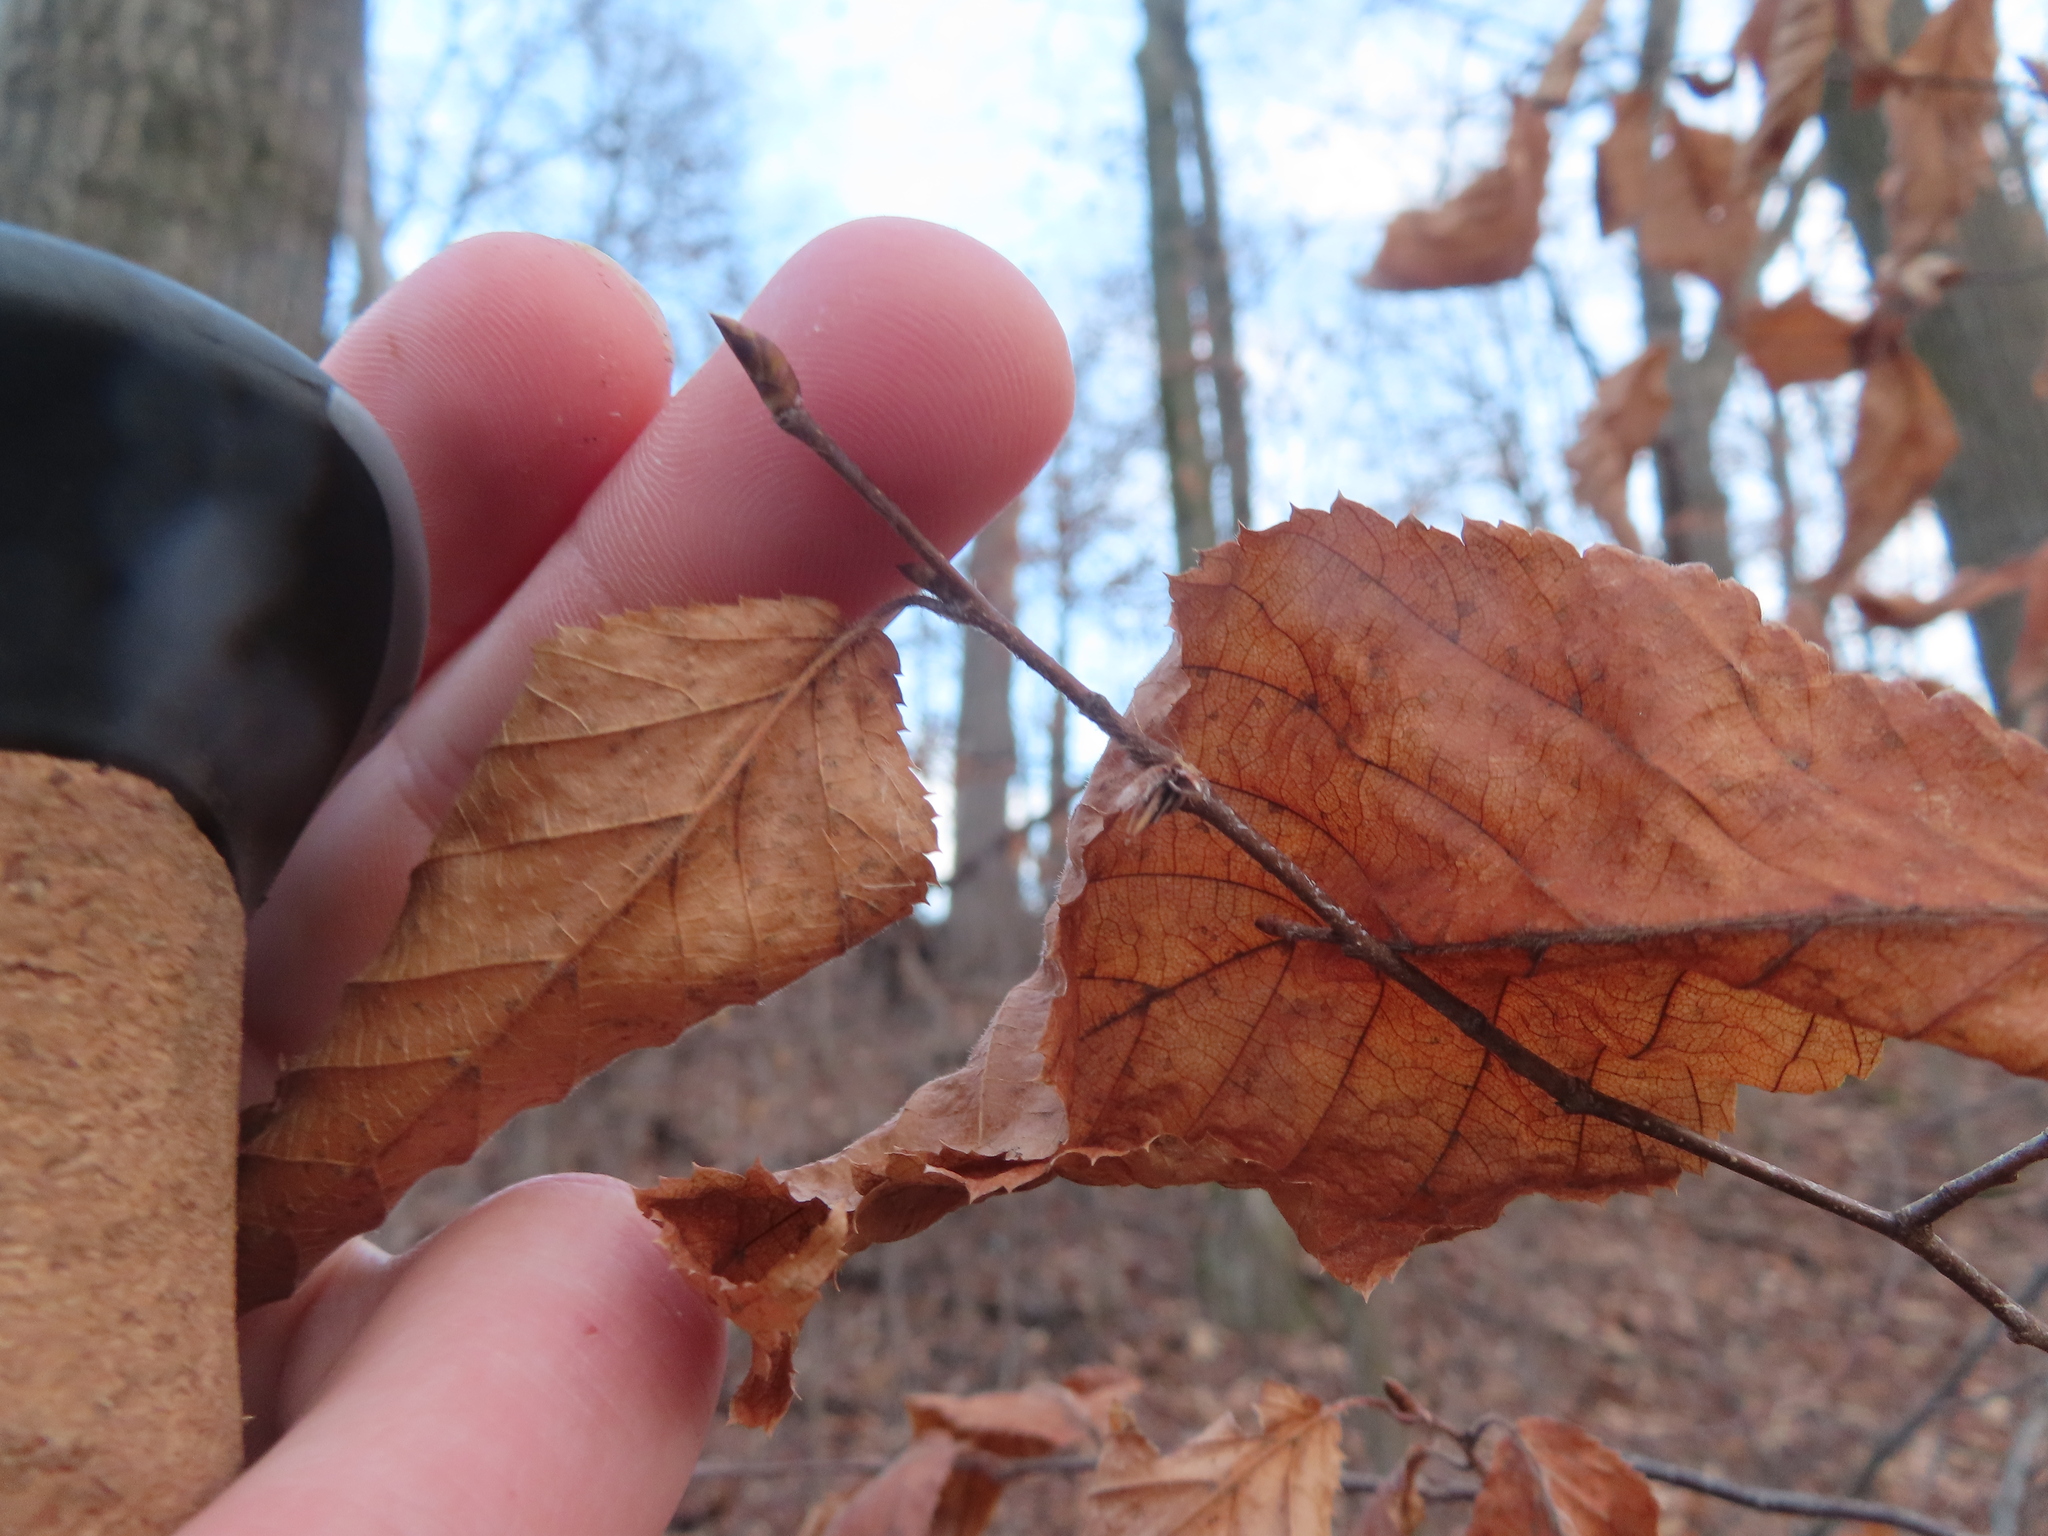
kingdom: Plantae
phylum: Tracheophyta
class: Magnoliopsida
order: Fagales
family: Betulaceae
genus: Ostrya
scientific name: Ostrya virginiana
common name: Ironwood
